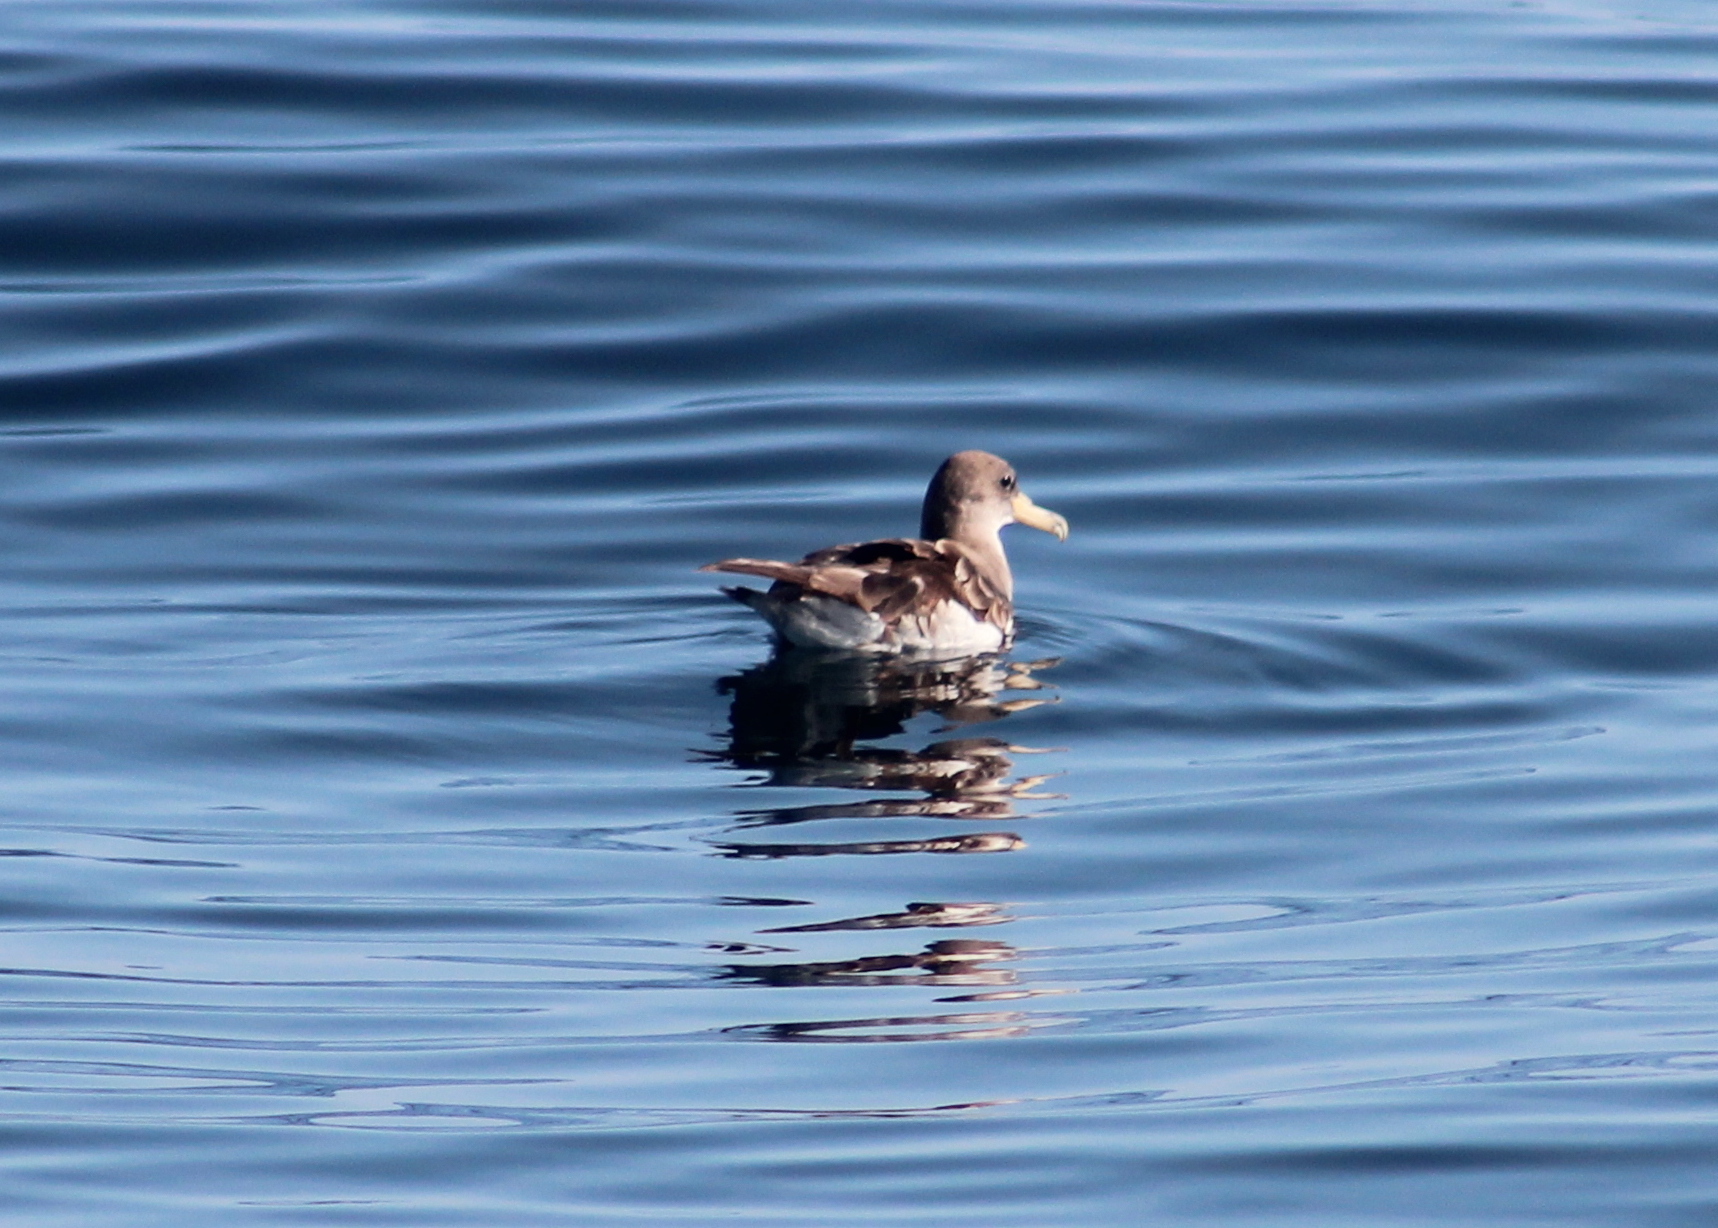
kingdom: Animalia
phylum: Chordata
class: Aves
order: Procellariiformes
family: Procellariidae
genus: Calonectris
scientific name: Calonectris diomedea
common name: Cory's shearwater
